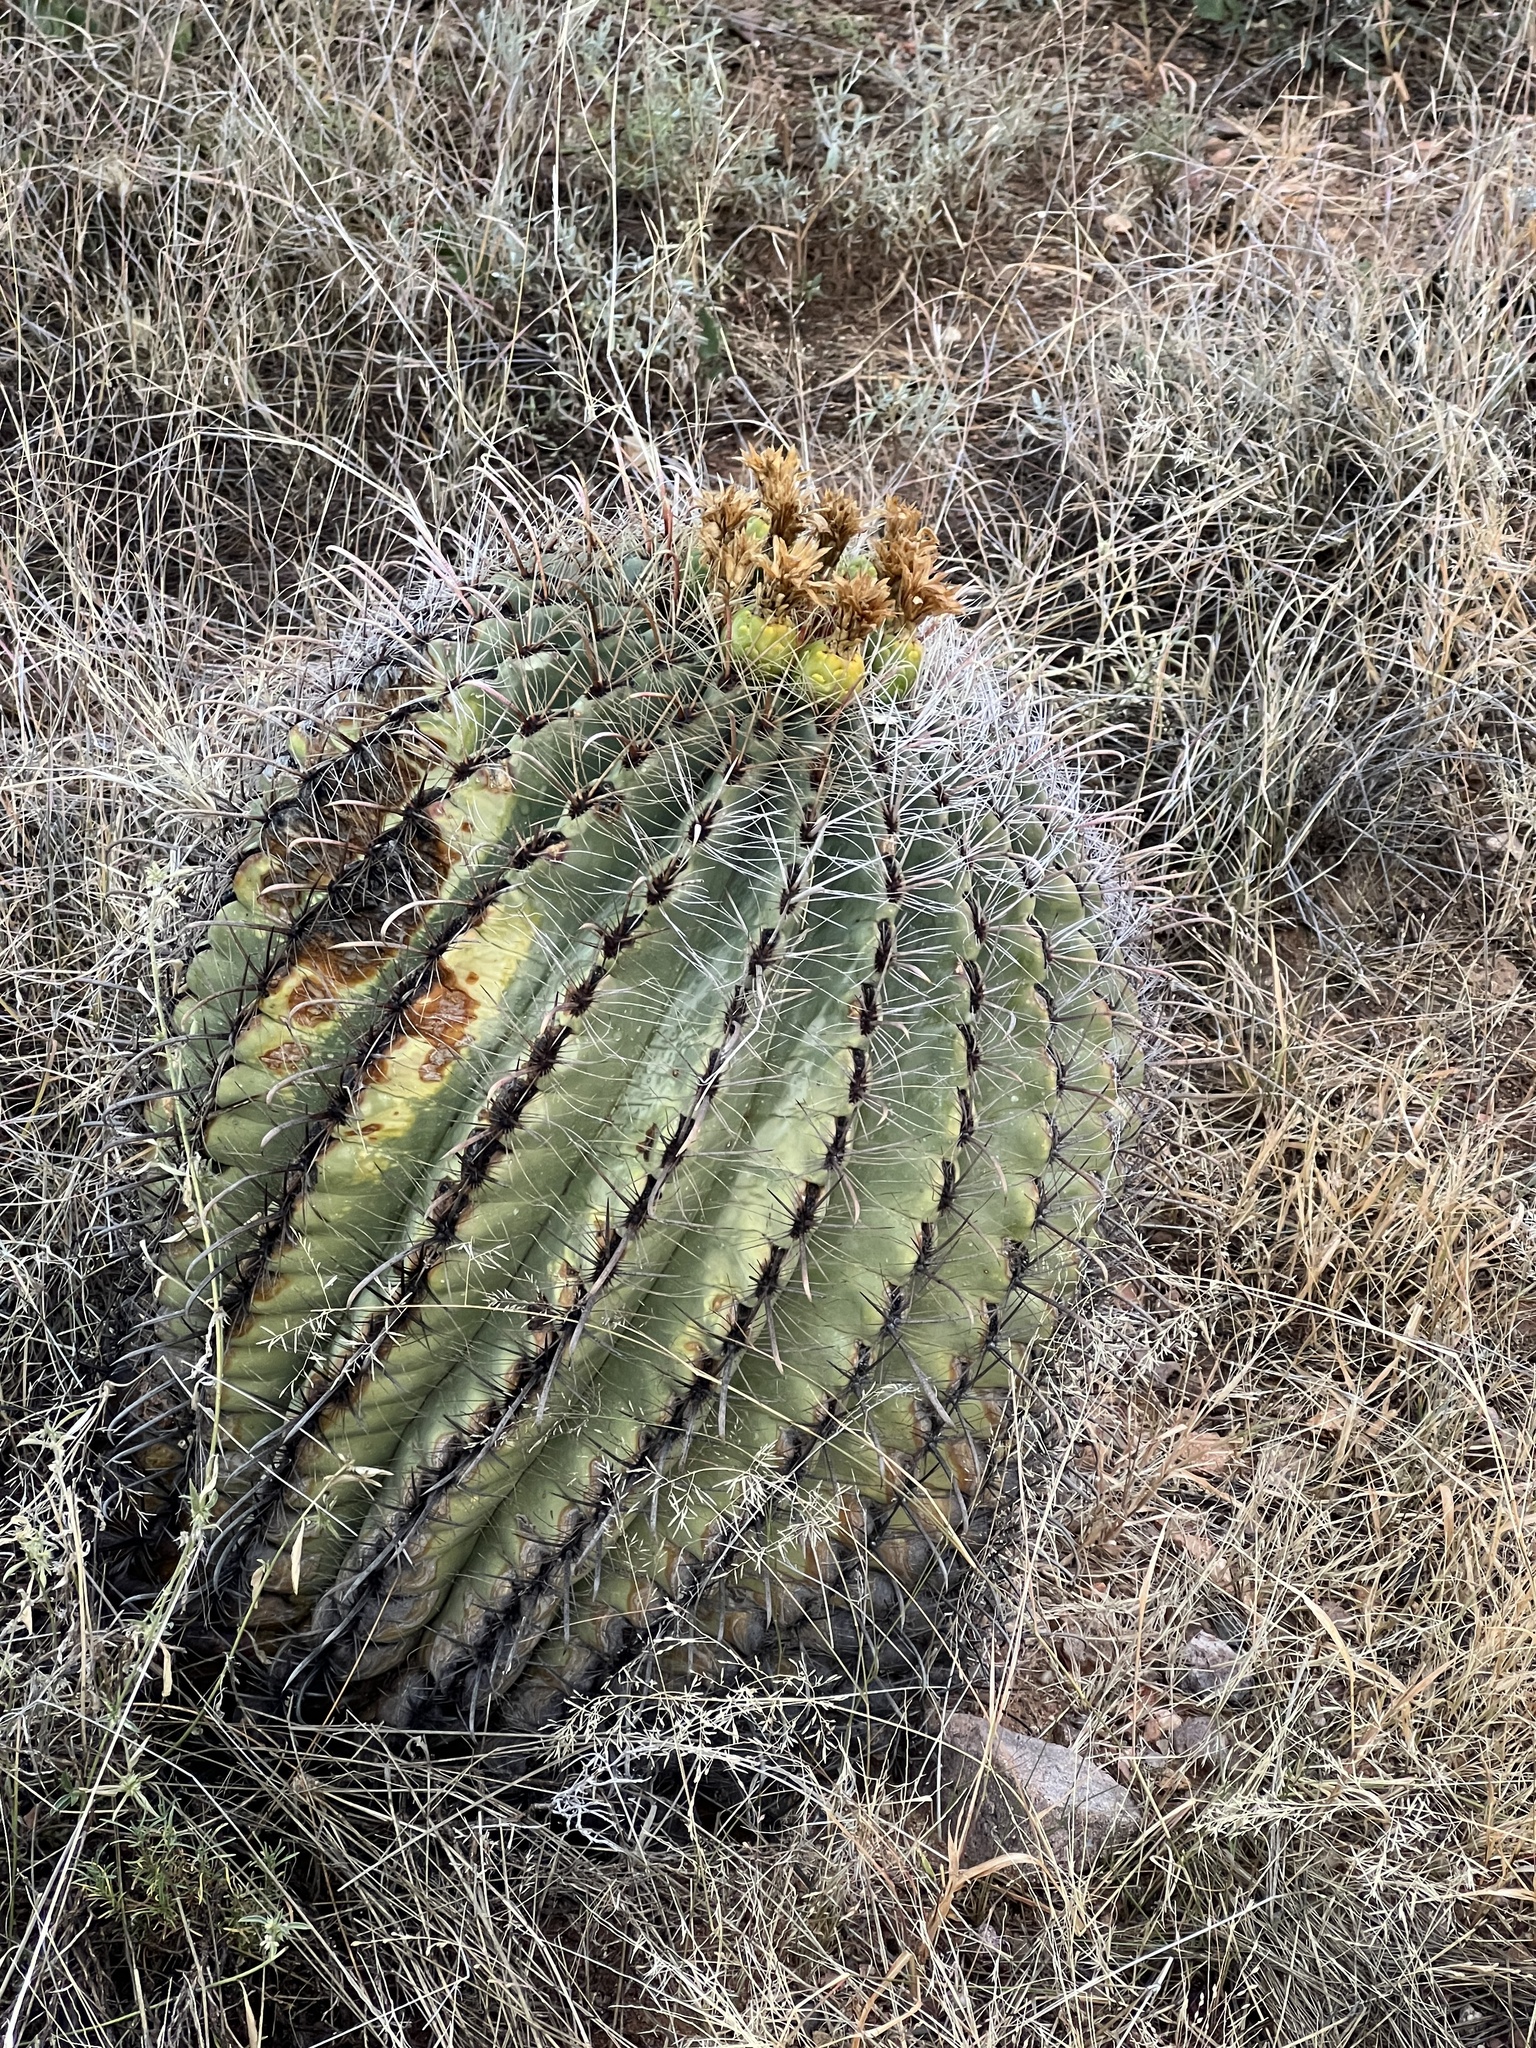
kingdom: Plantae
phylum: Tracheophyta
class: Magnoliopsida
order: Caryophyllales
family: Cactaceae
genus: Ferocactus
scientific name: Ferocactus wislizeni
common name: Candy barrel cactus
